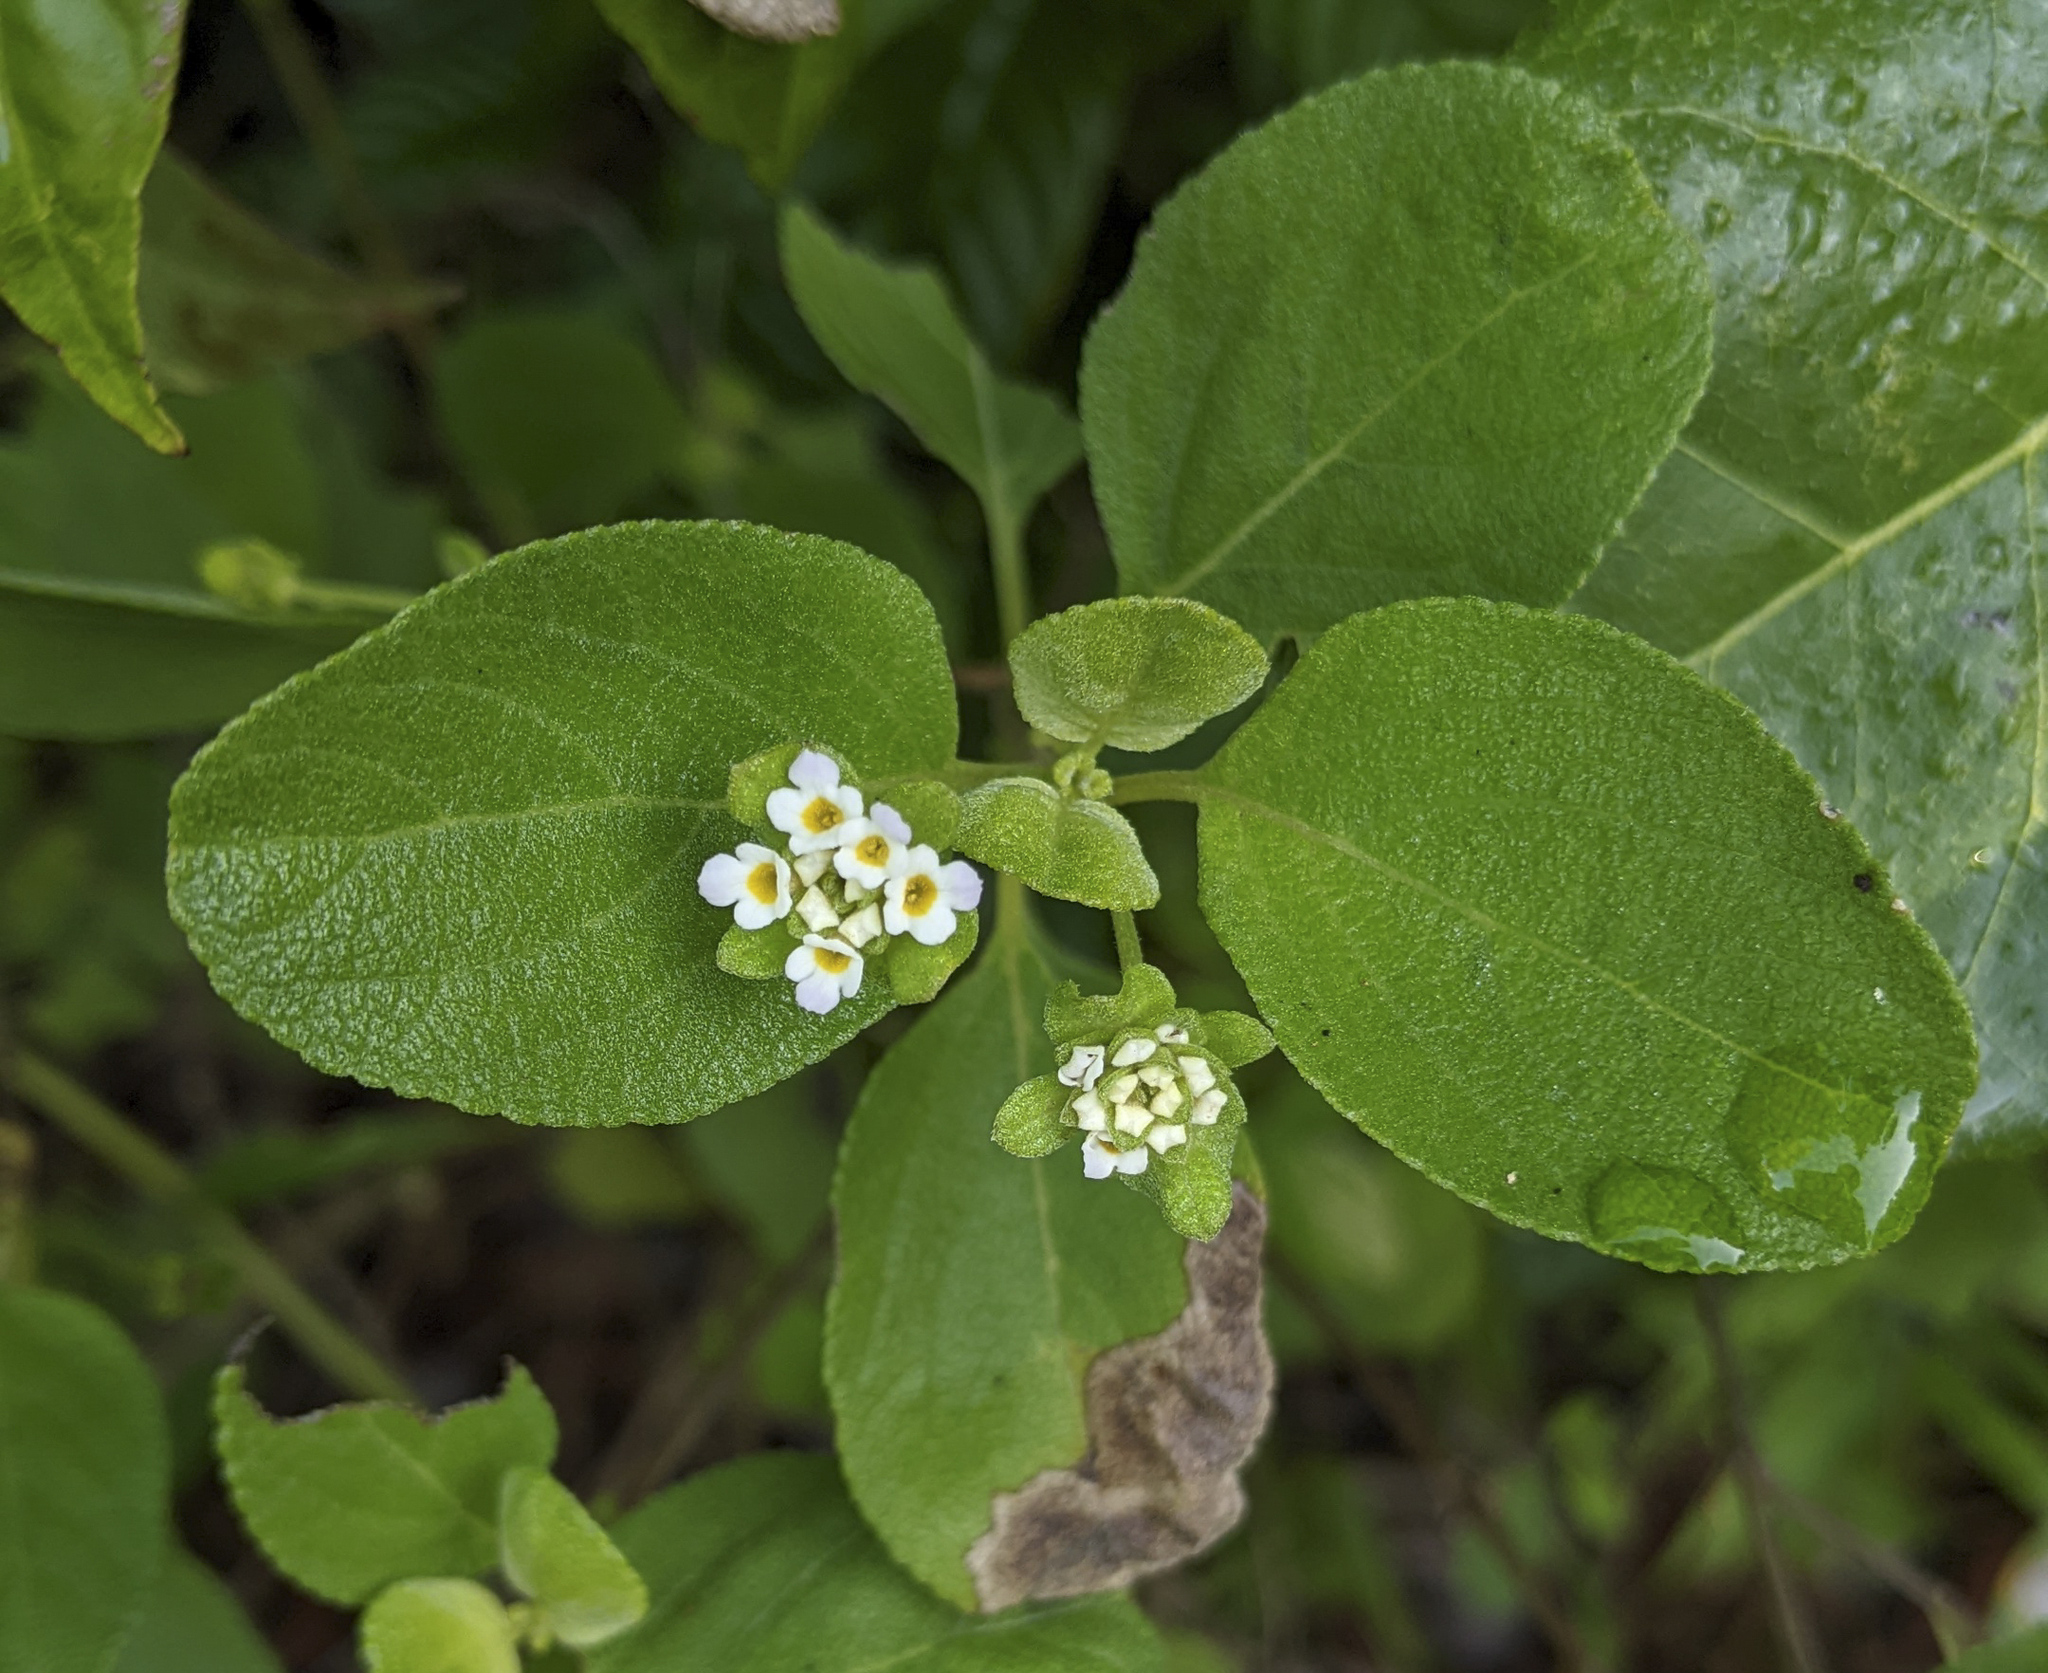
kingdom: Plantae
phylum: Tracheophyta
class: Magnoliopsida
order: Lamiales
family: Verbenaceae
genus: Lantana
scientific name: Lantana involucrata
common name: Black sage
